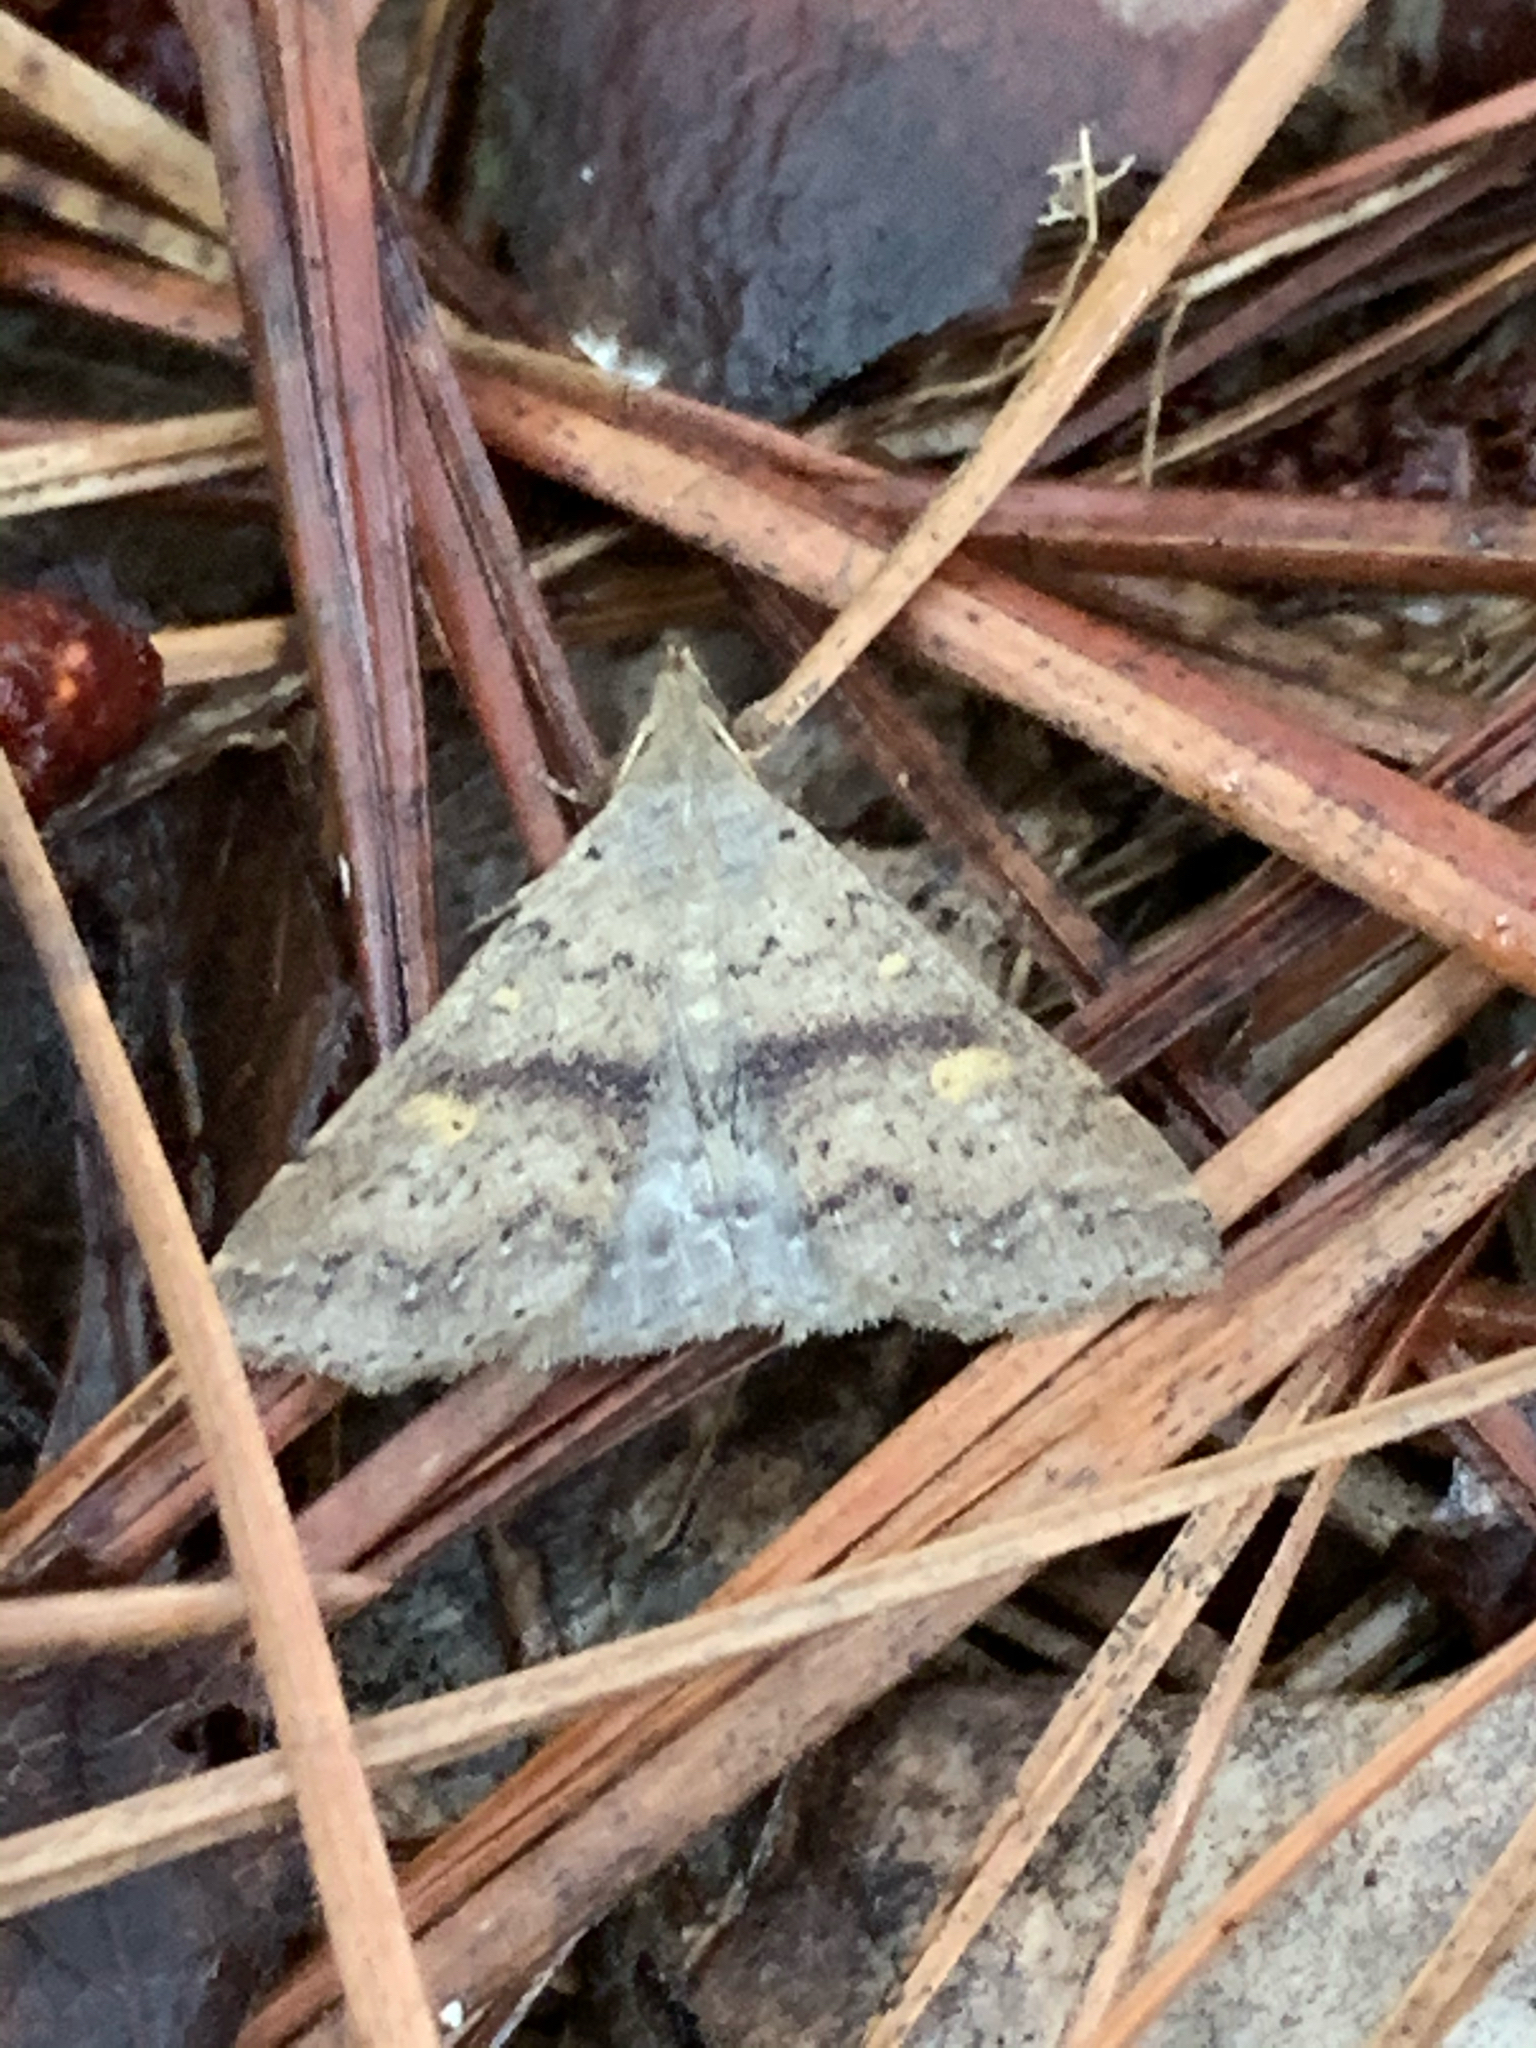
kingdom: Animalia
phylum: Arthropoda
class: Insecta
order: Lepidoptera
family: Erebidae
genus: Renia
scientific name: Renia salusalis
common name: Dotted renia moth
